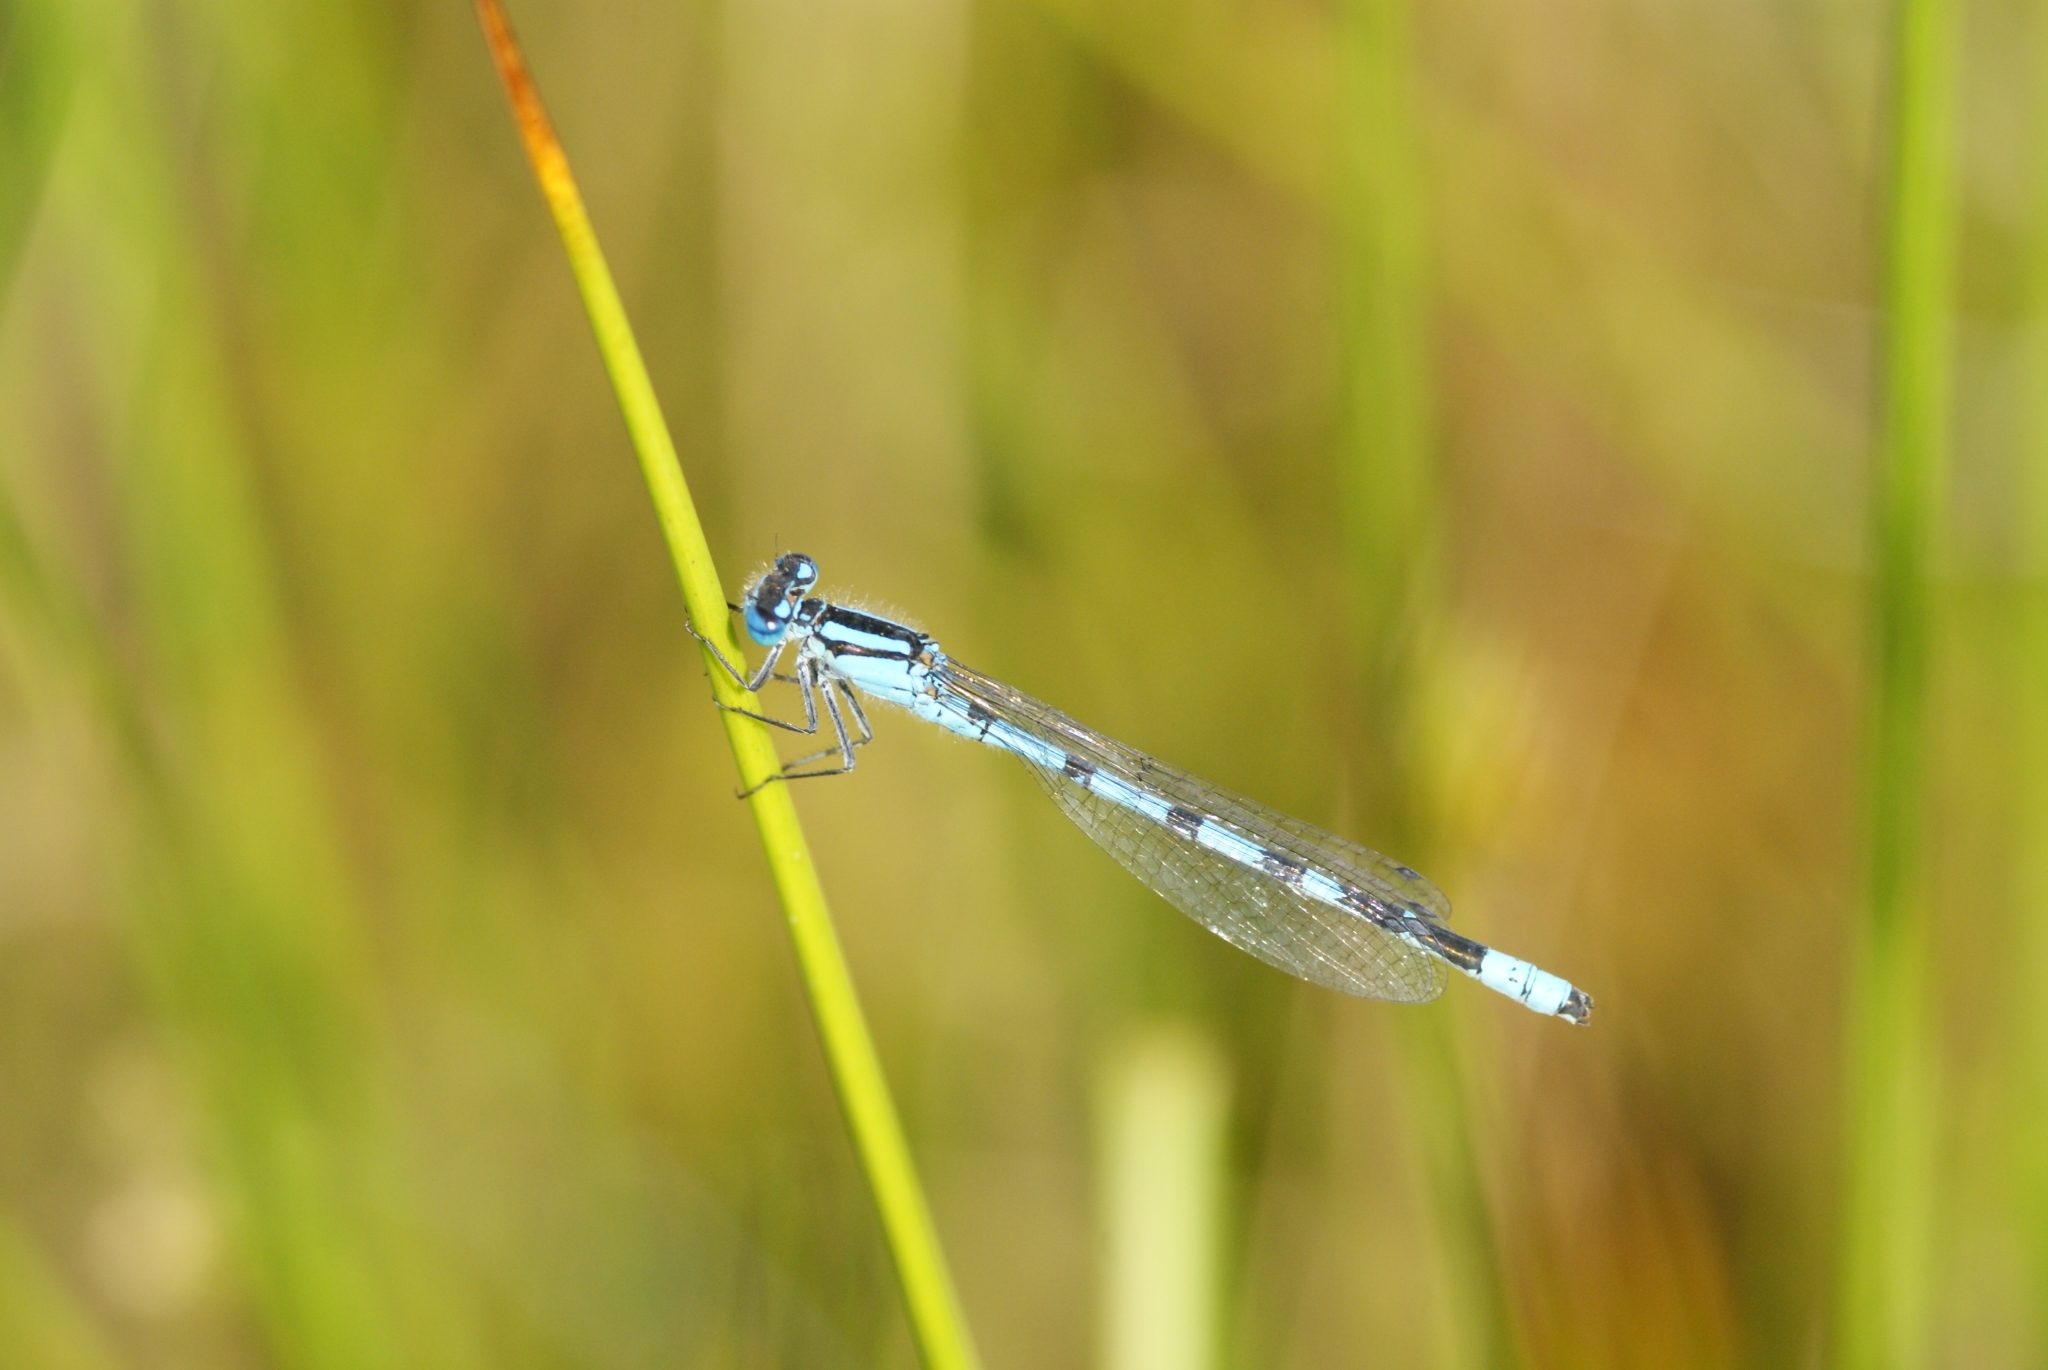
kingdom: Animalia
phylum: Arthropoda
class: Insecta
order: Odonata
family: Coenagrionidae
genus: Enallagma
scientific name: Enallagma cyathigerum
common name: Common blue damselfly
